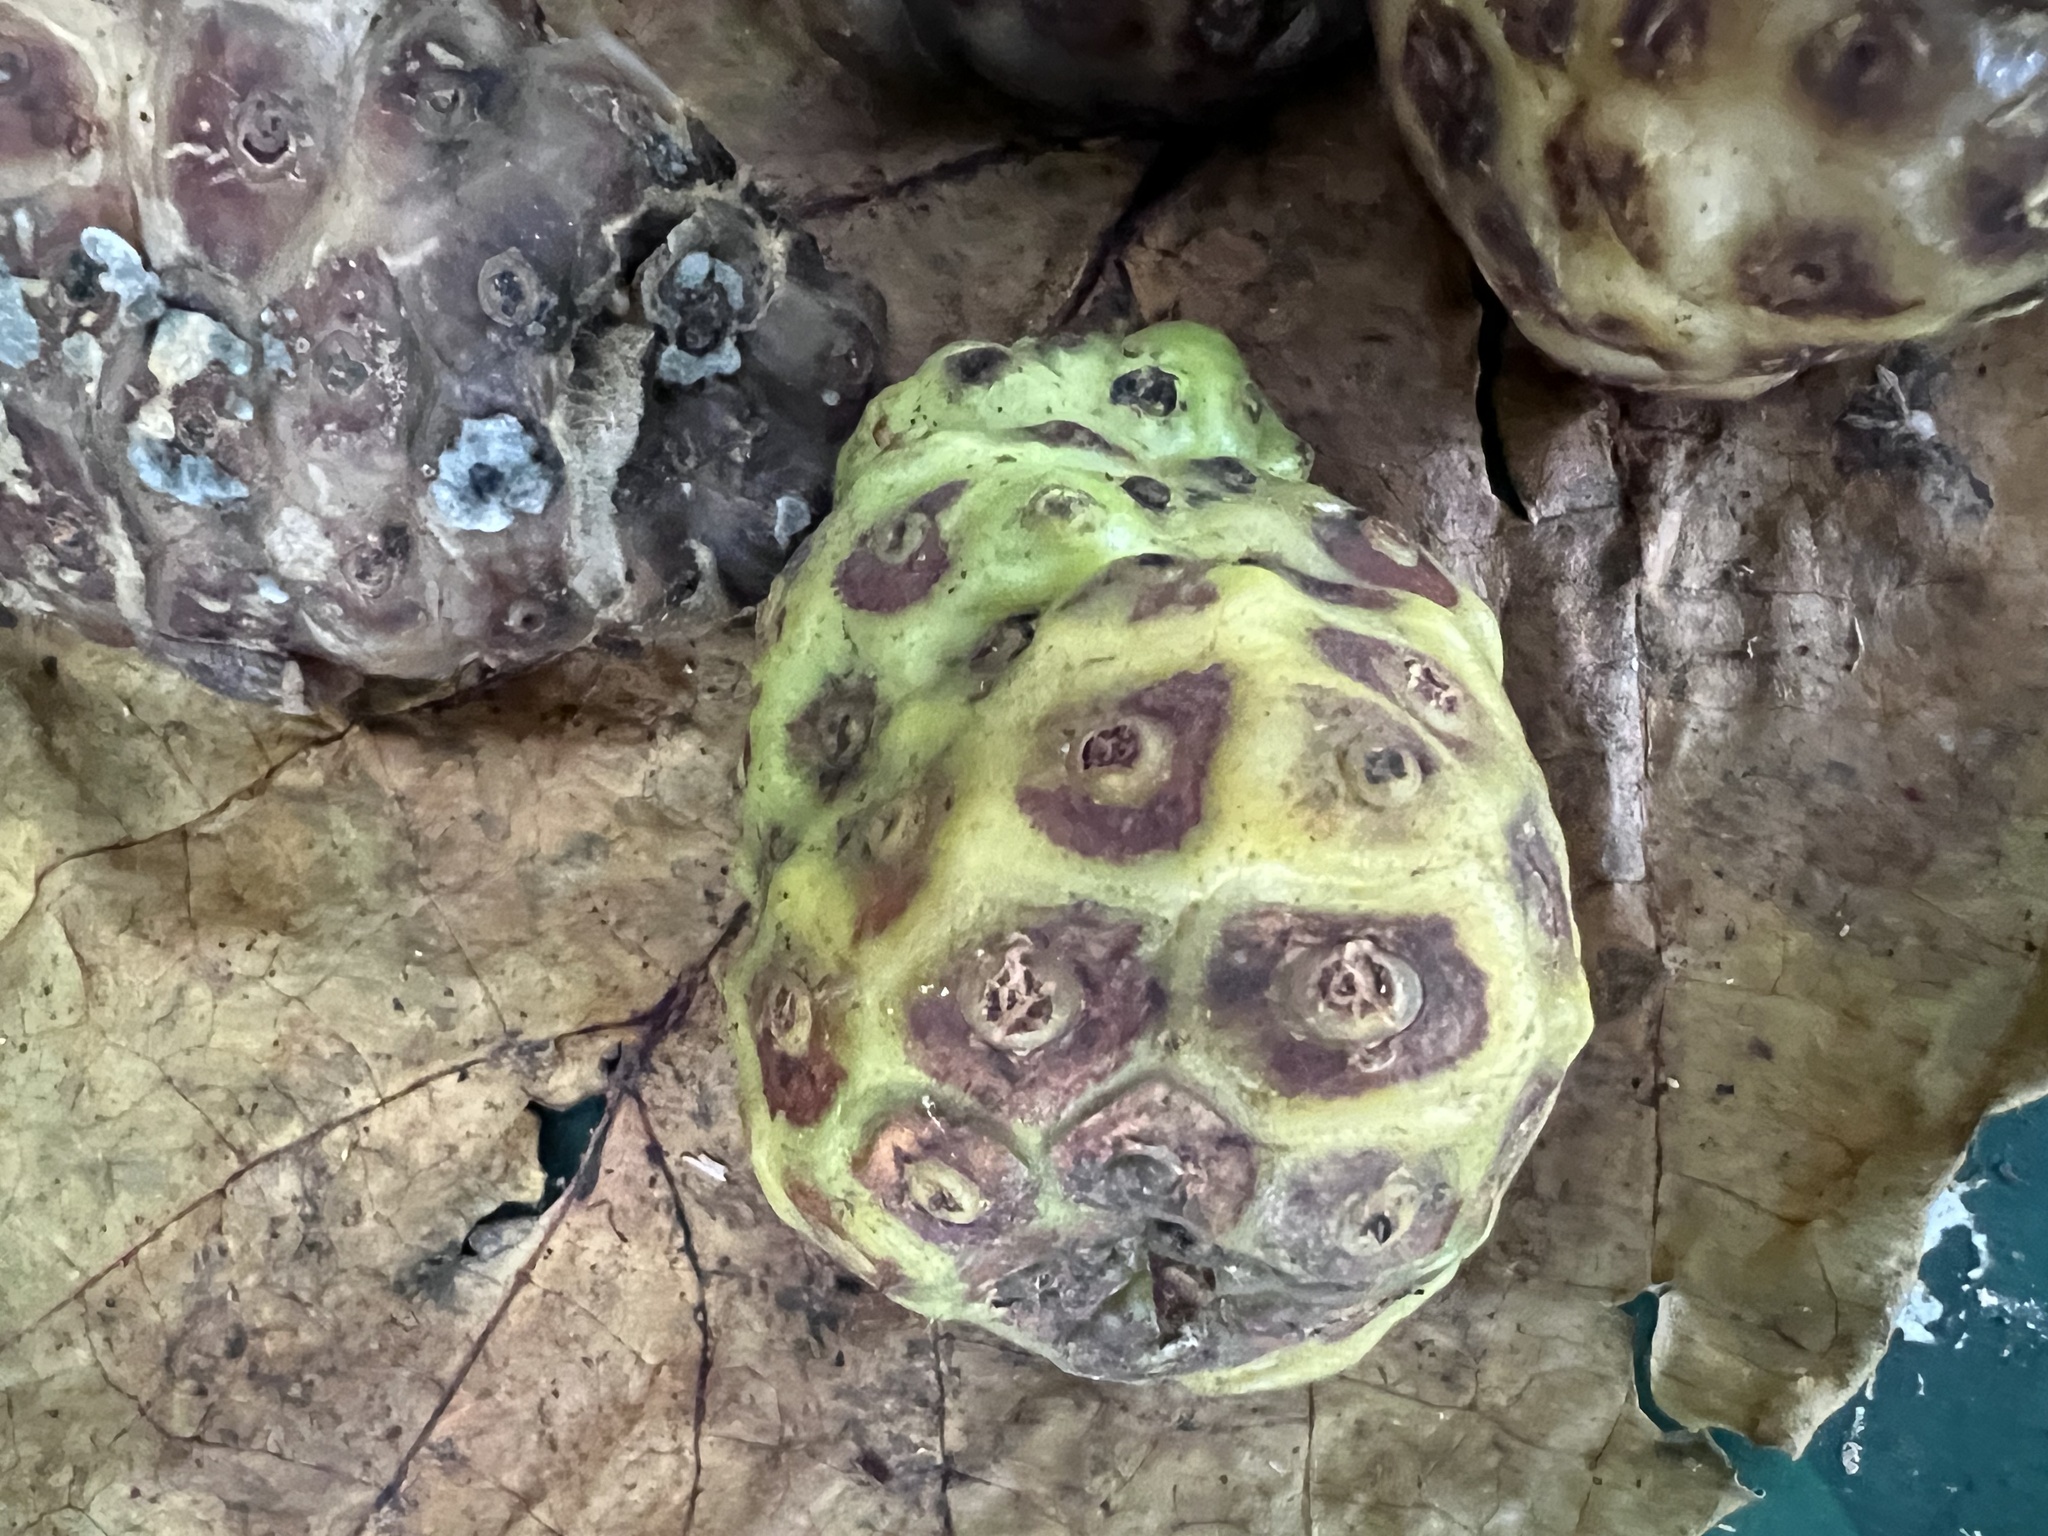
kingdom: Plantae
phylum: Tracheophyta
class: Magnoliopsida
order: Gentianales
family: Rubiaceae
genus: Morinda
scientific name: Morinda citrifolia
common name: Indian-mulberry
